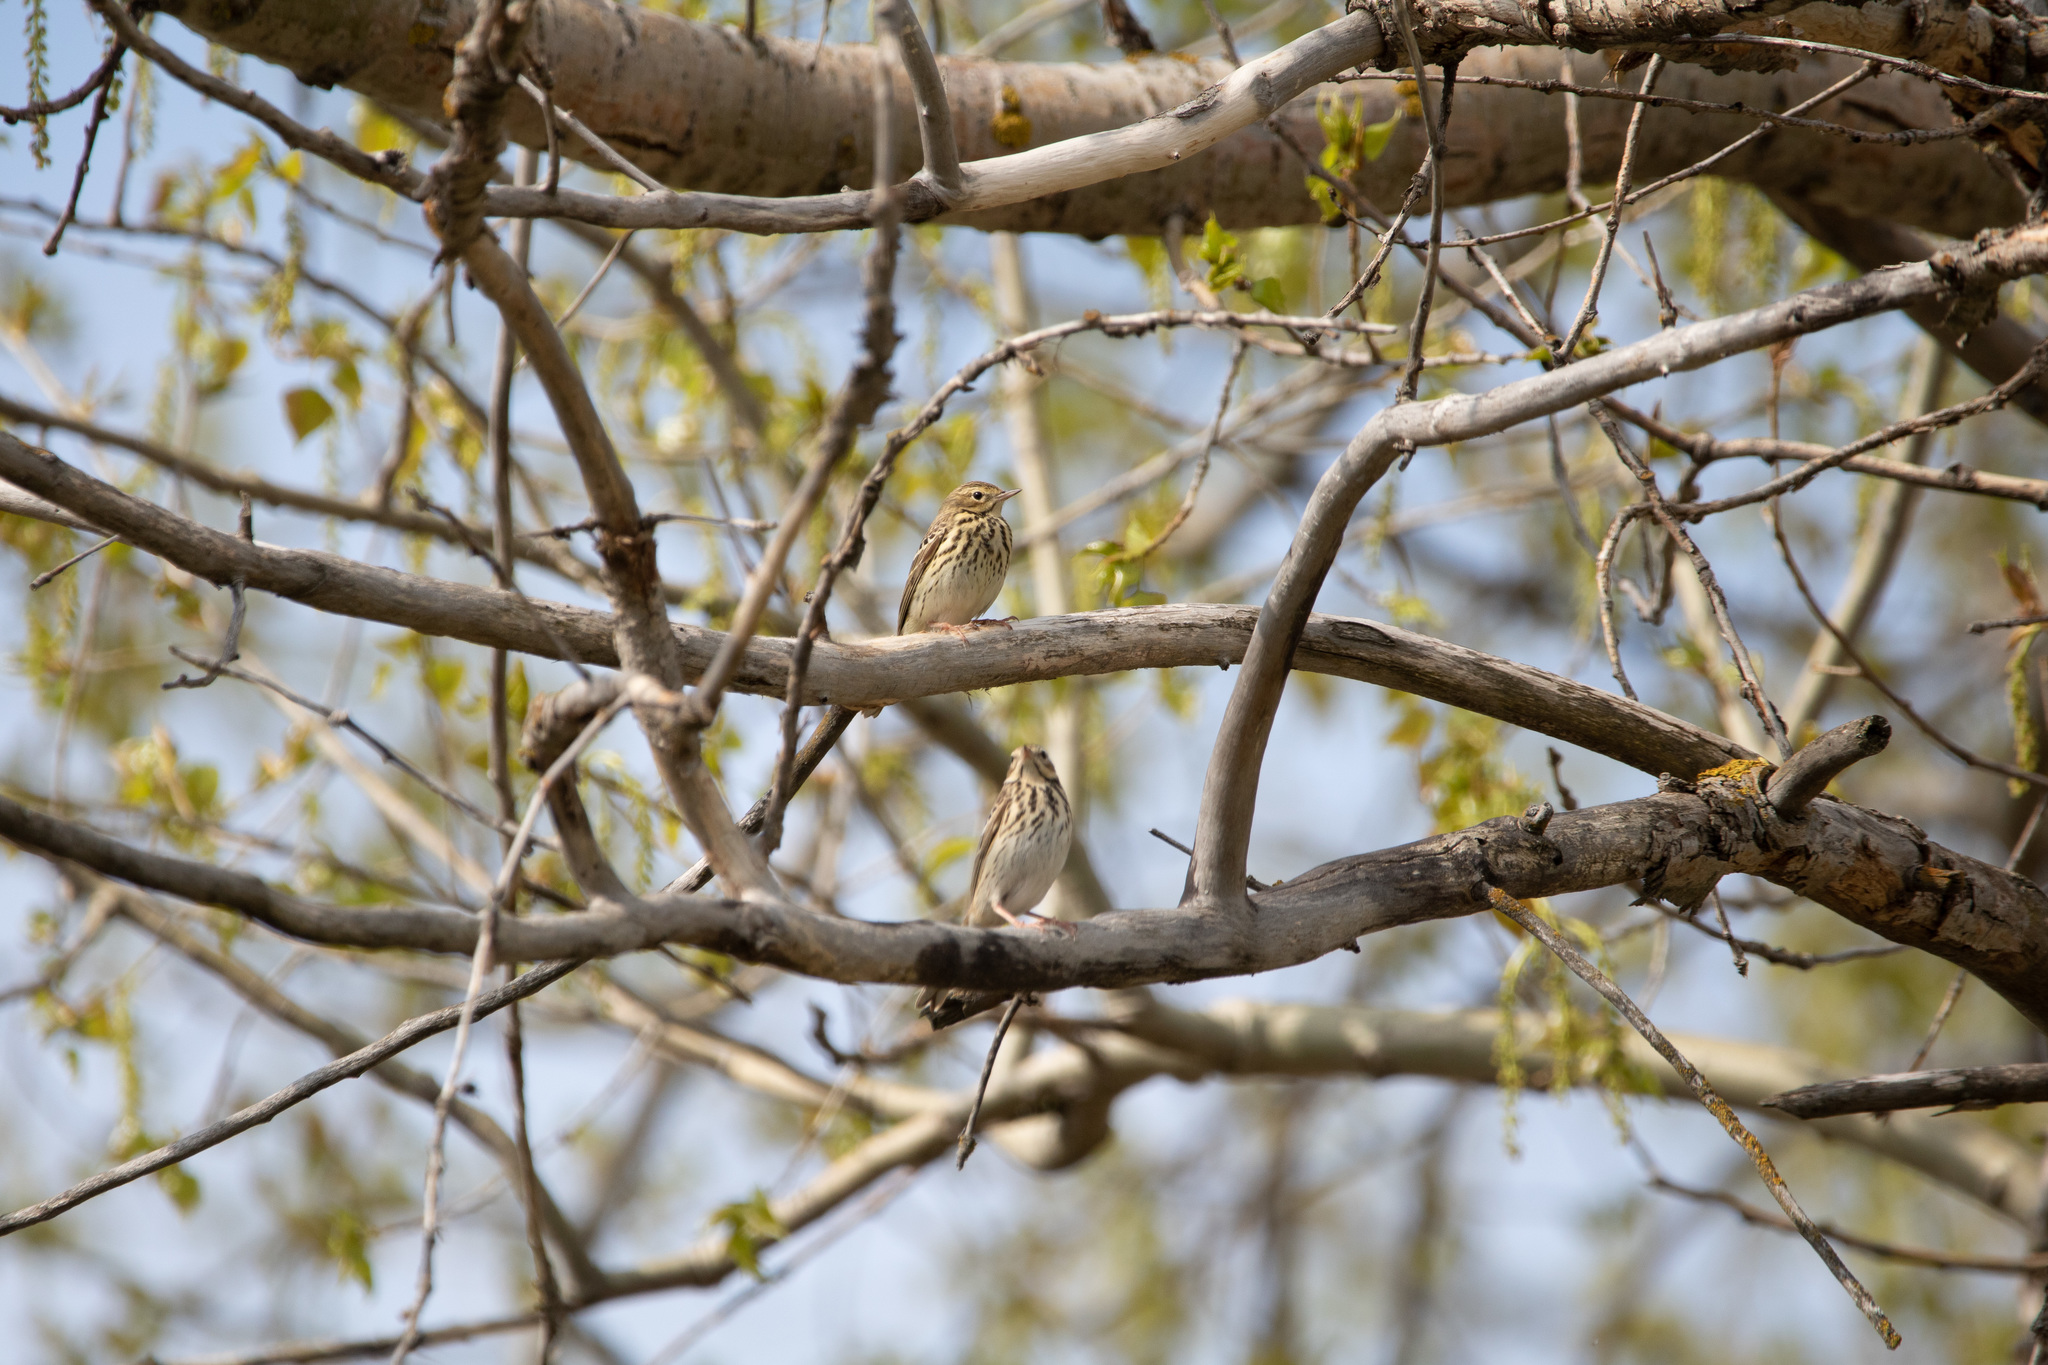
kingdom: Animalia
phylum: Chordata
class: Aves
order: Passeriformes
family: Motacillidae
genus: Anthus
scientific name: Anthus trivialis
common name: Tree pipit
